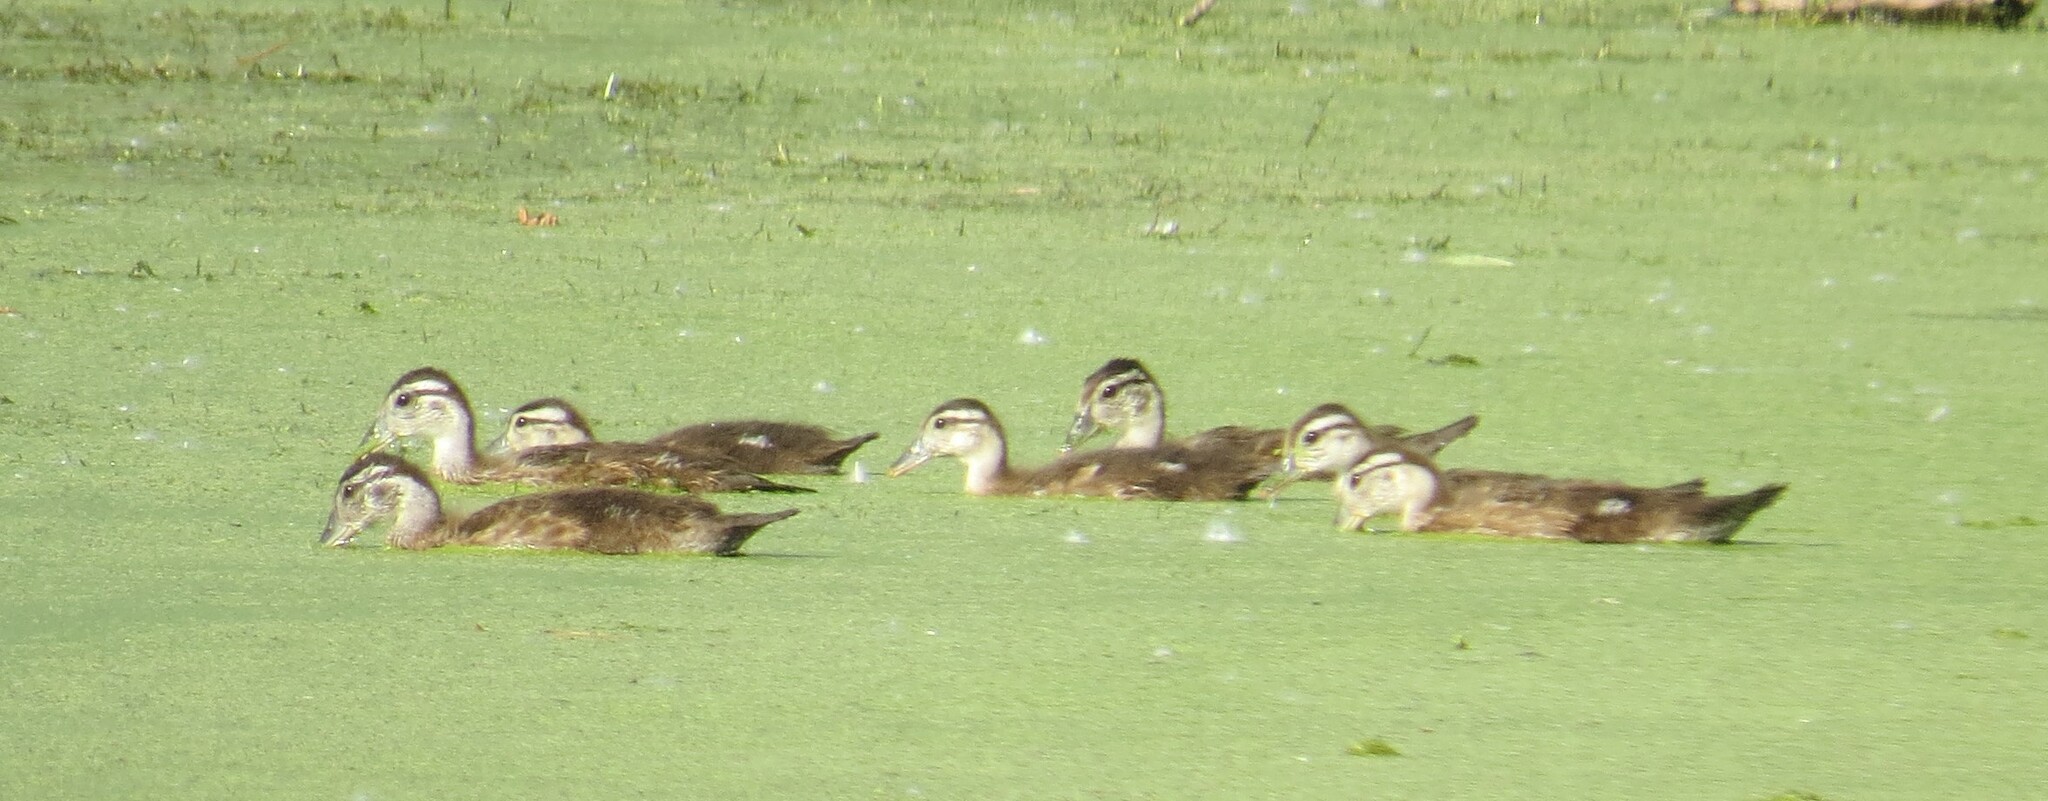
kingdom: Animalia
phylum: Chordata
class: Aves
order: Anseriformes
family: Anatidae
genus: Aix
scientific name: Aix sponsa
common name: Wood duck
